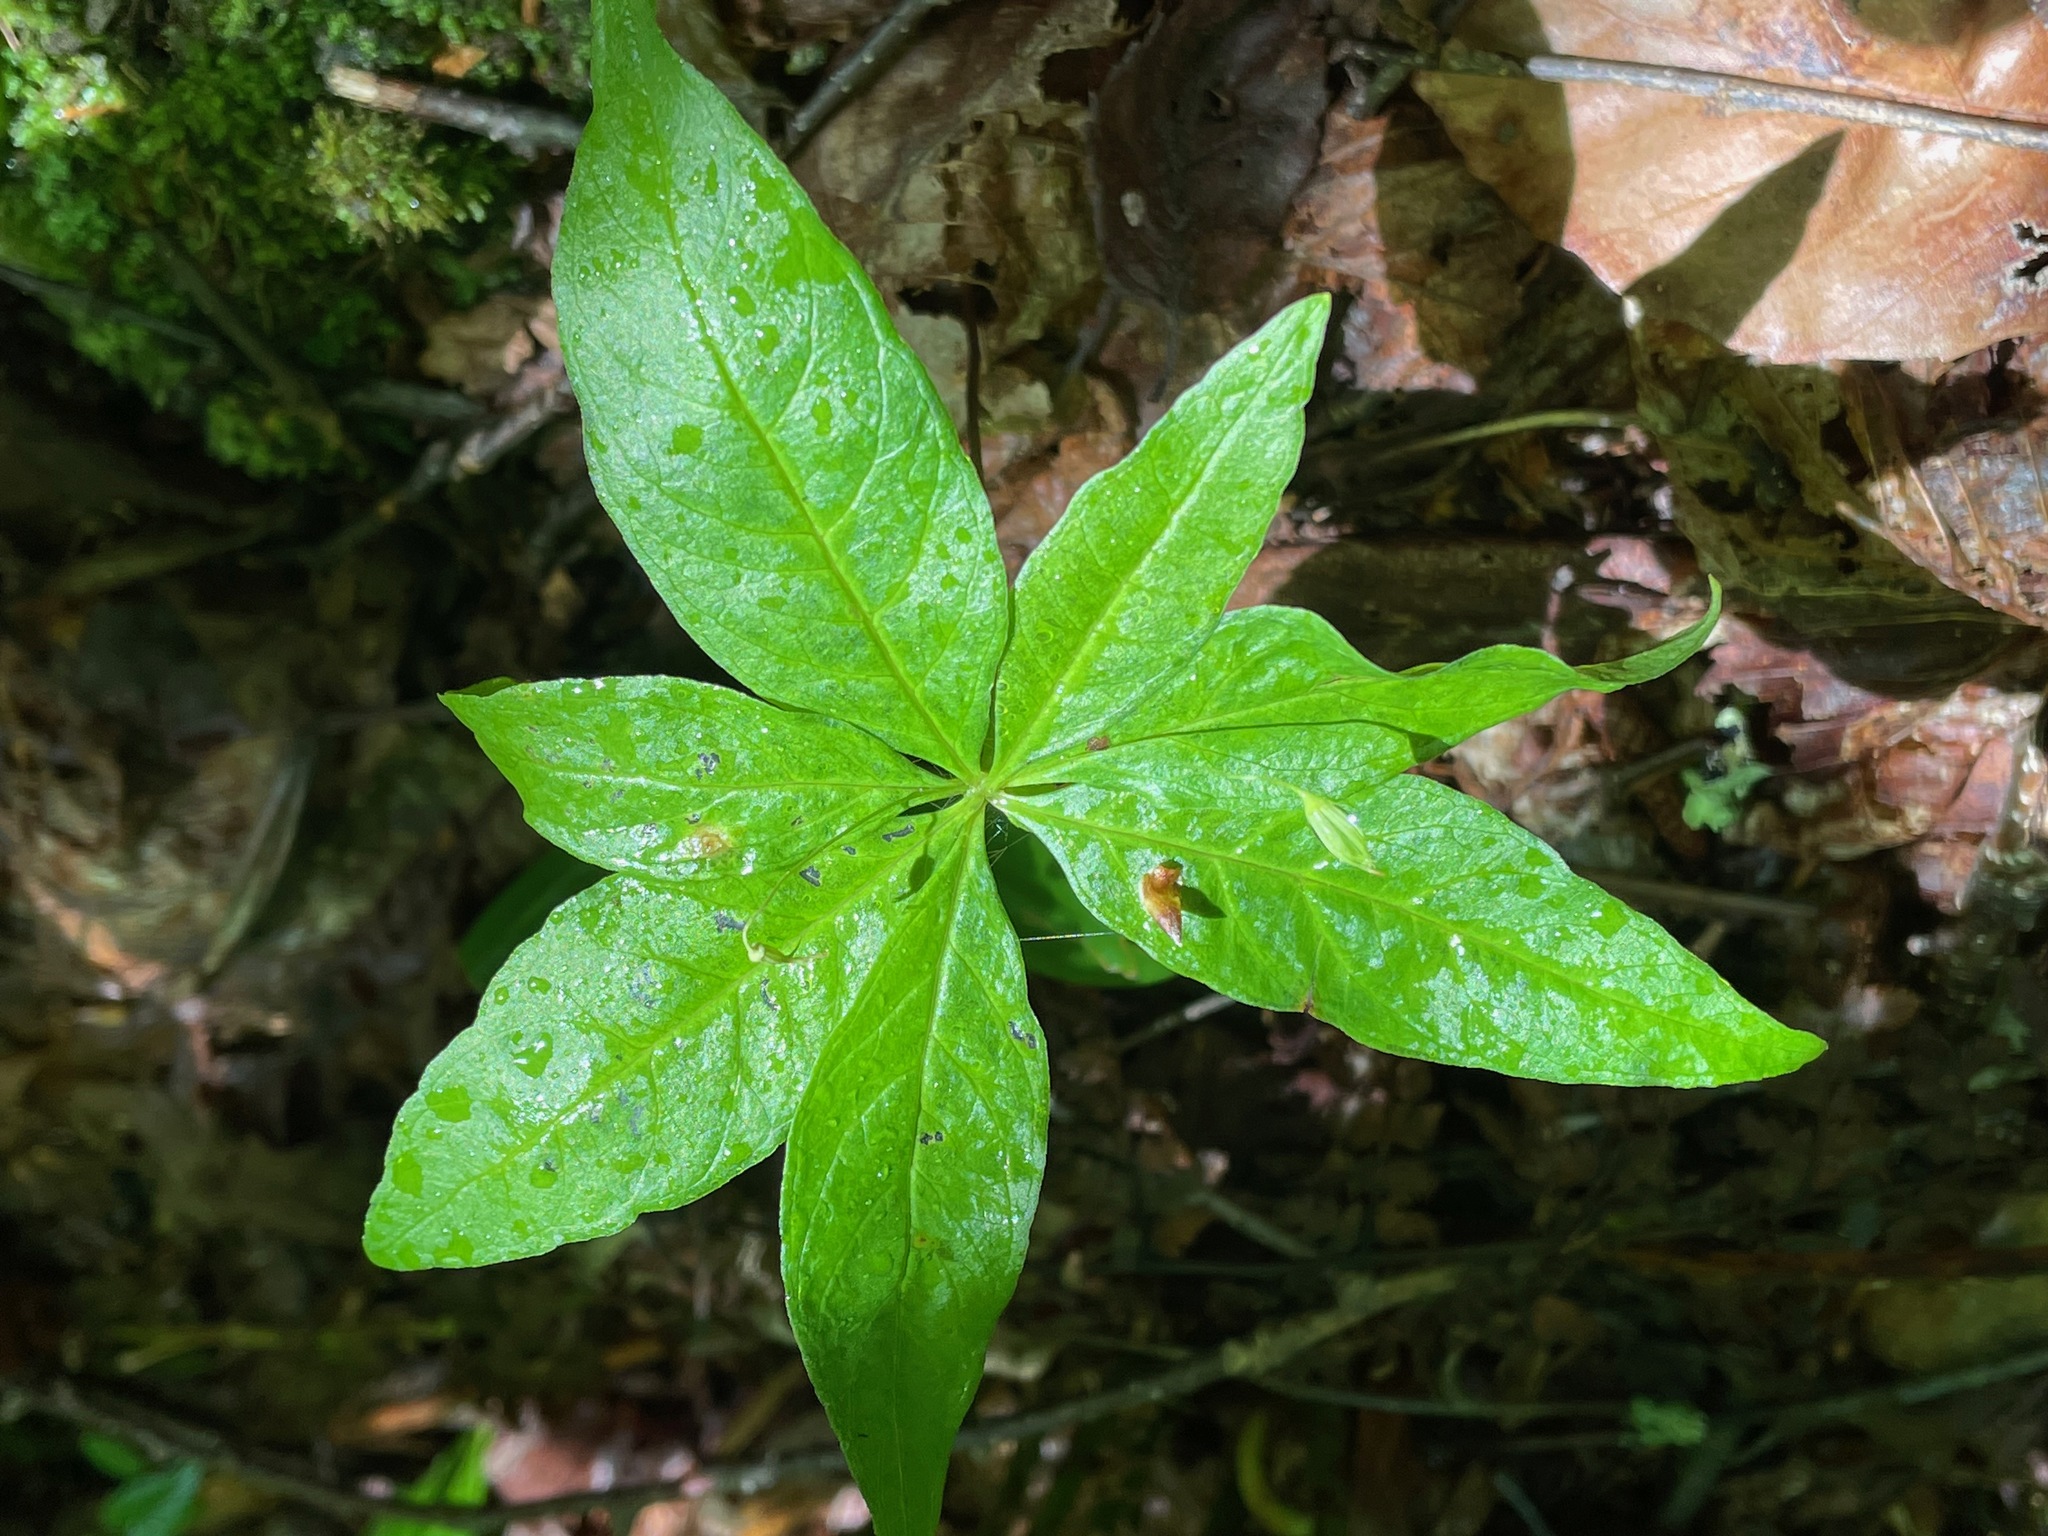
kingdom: Plantae
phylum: Tracheophyta
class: Magnoliopsida
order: Ericales
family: Primulaceae
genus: Lysimachia
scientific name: Lysimachia borealis
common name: American starflower
